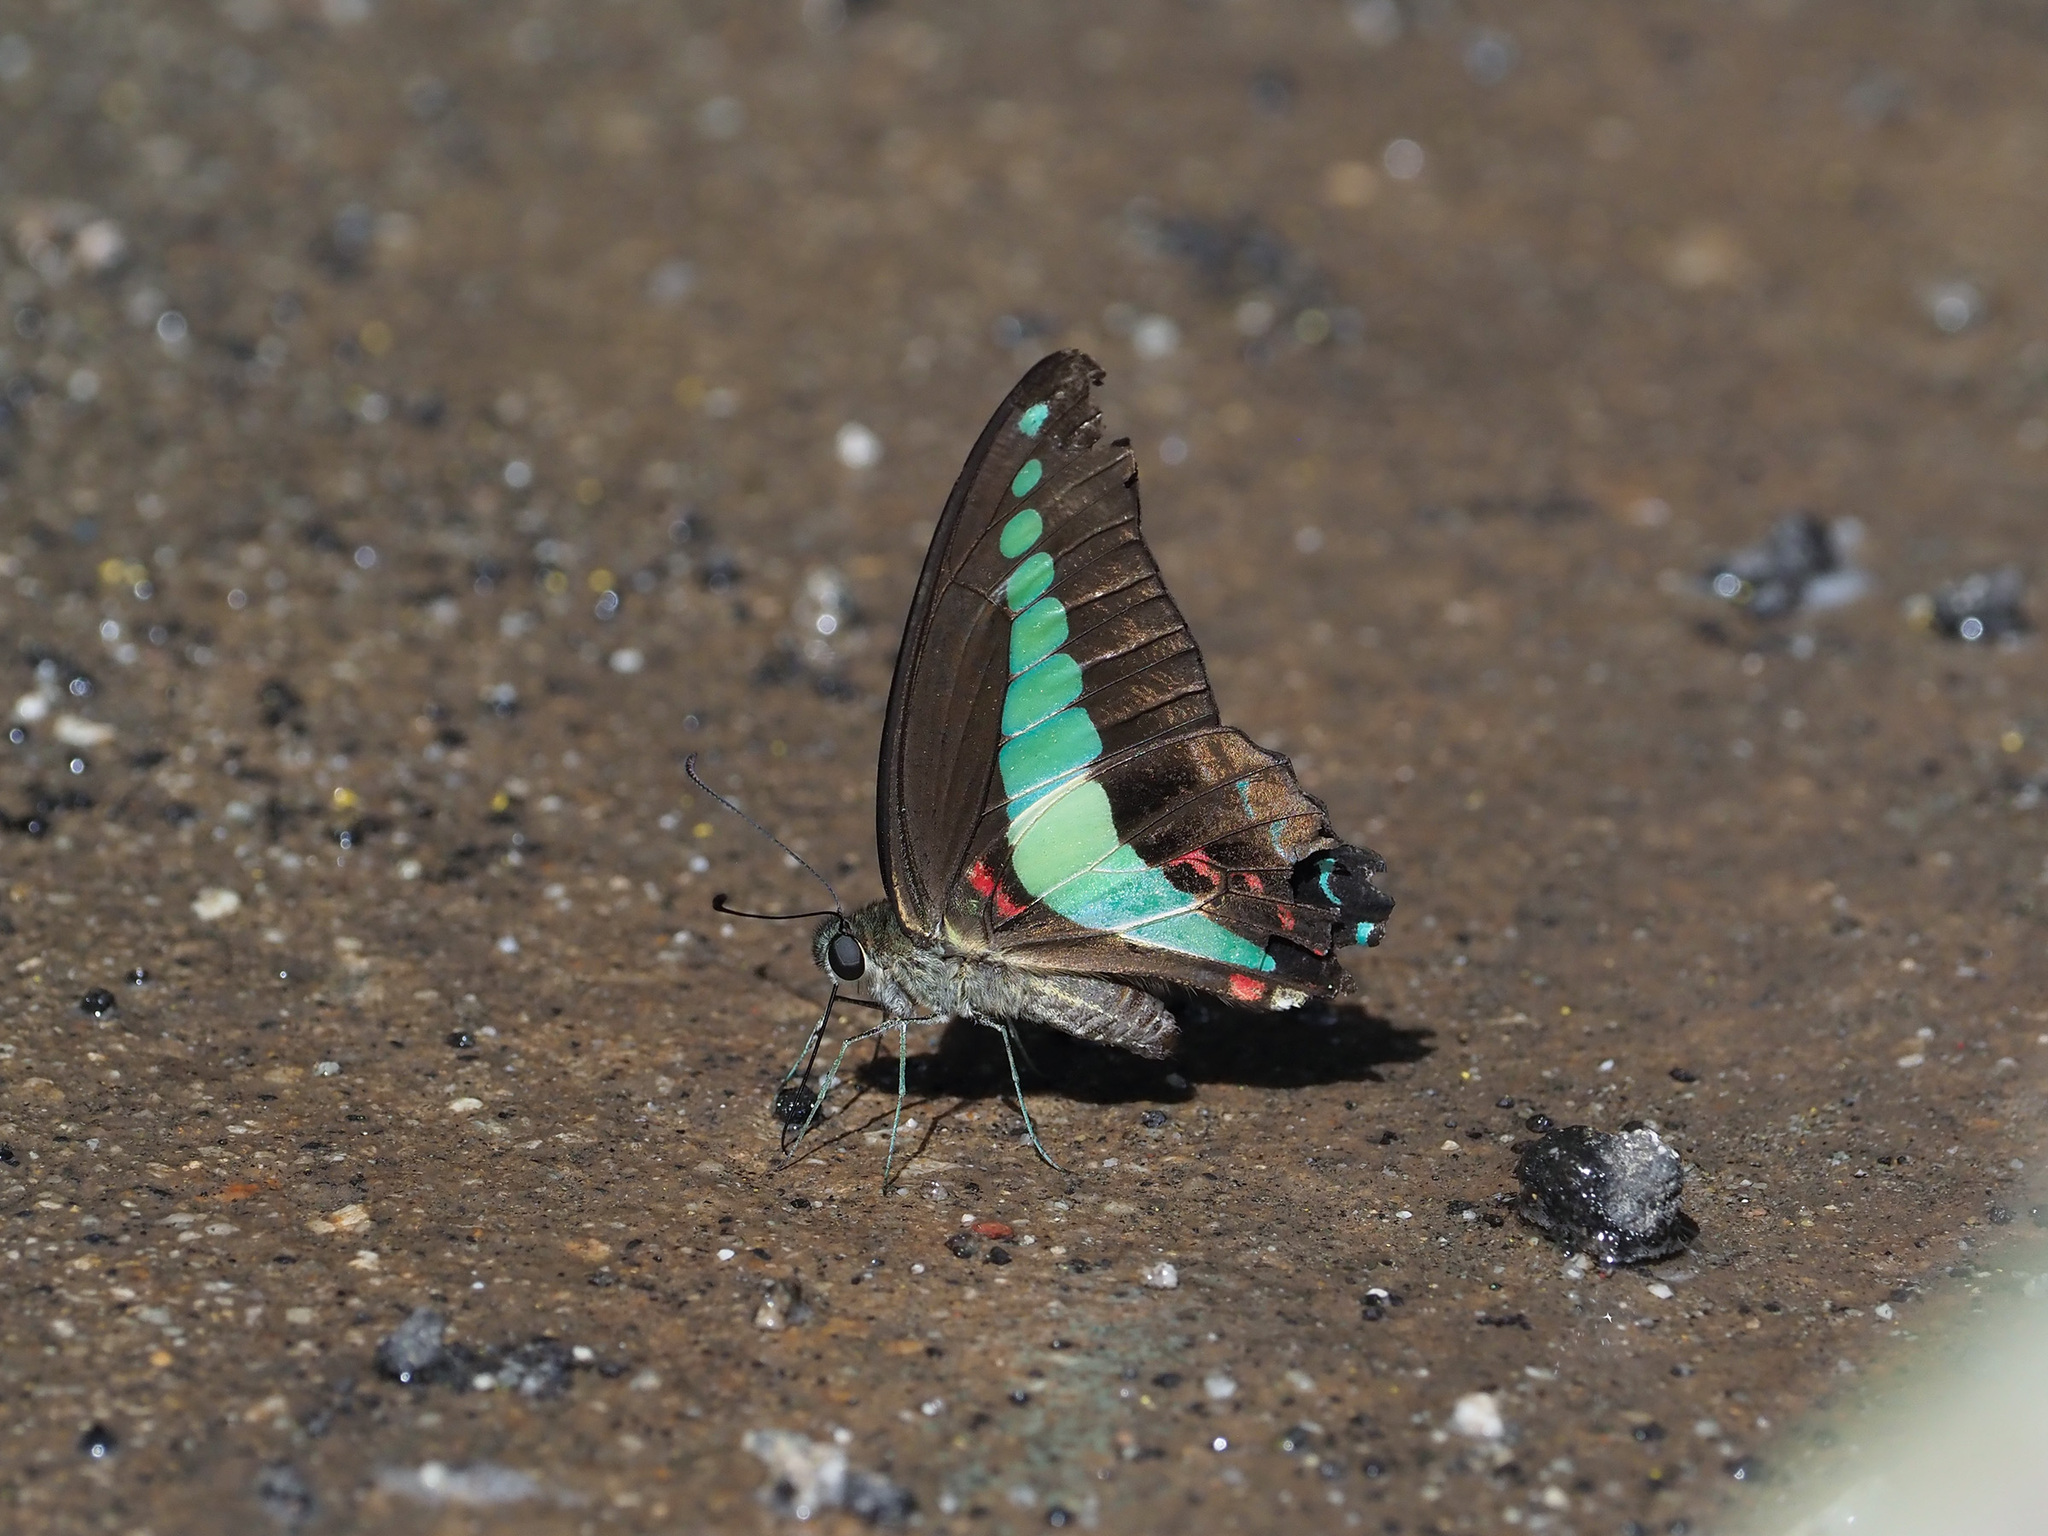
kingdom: Fungi
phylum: Ascomycota
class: Sordariomycetes
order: Microascales
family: Microascaceae
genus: Graphium
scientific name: Graphium sarpedon
